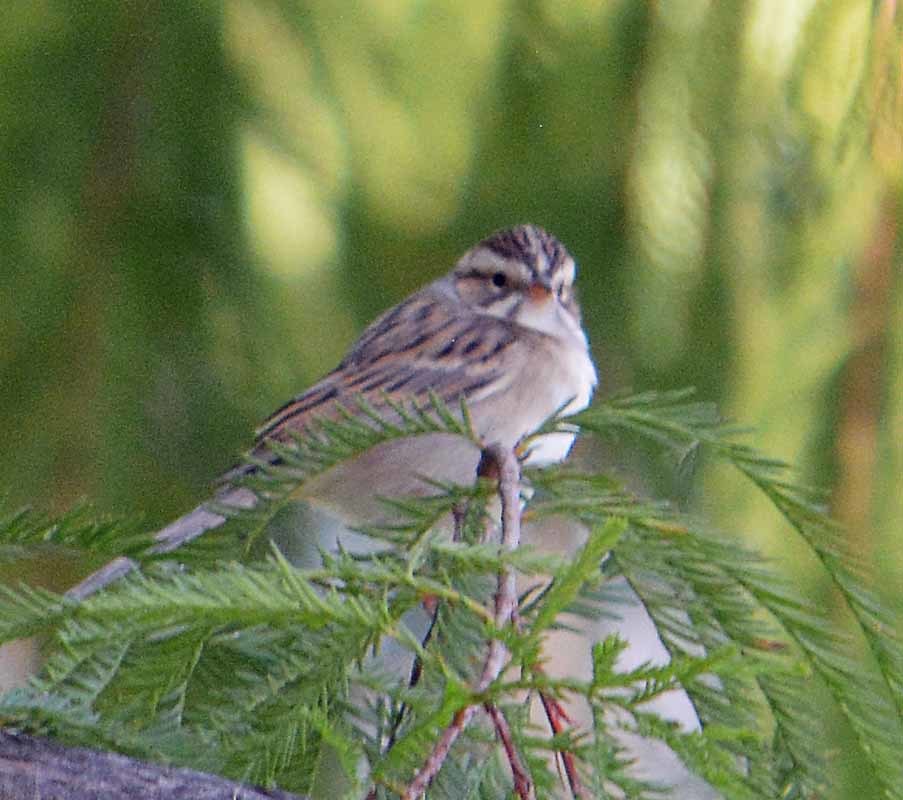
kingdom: Animalia
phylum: Chordata
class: Aves
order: Passeriformes
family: Passerellidae
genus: Spizella
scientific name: Spizella passerina
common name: Chipping sparrow
